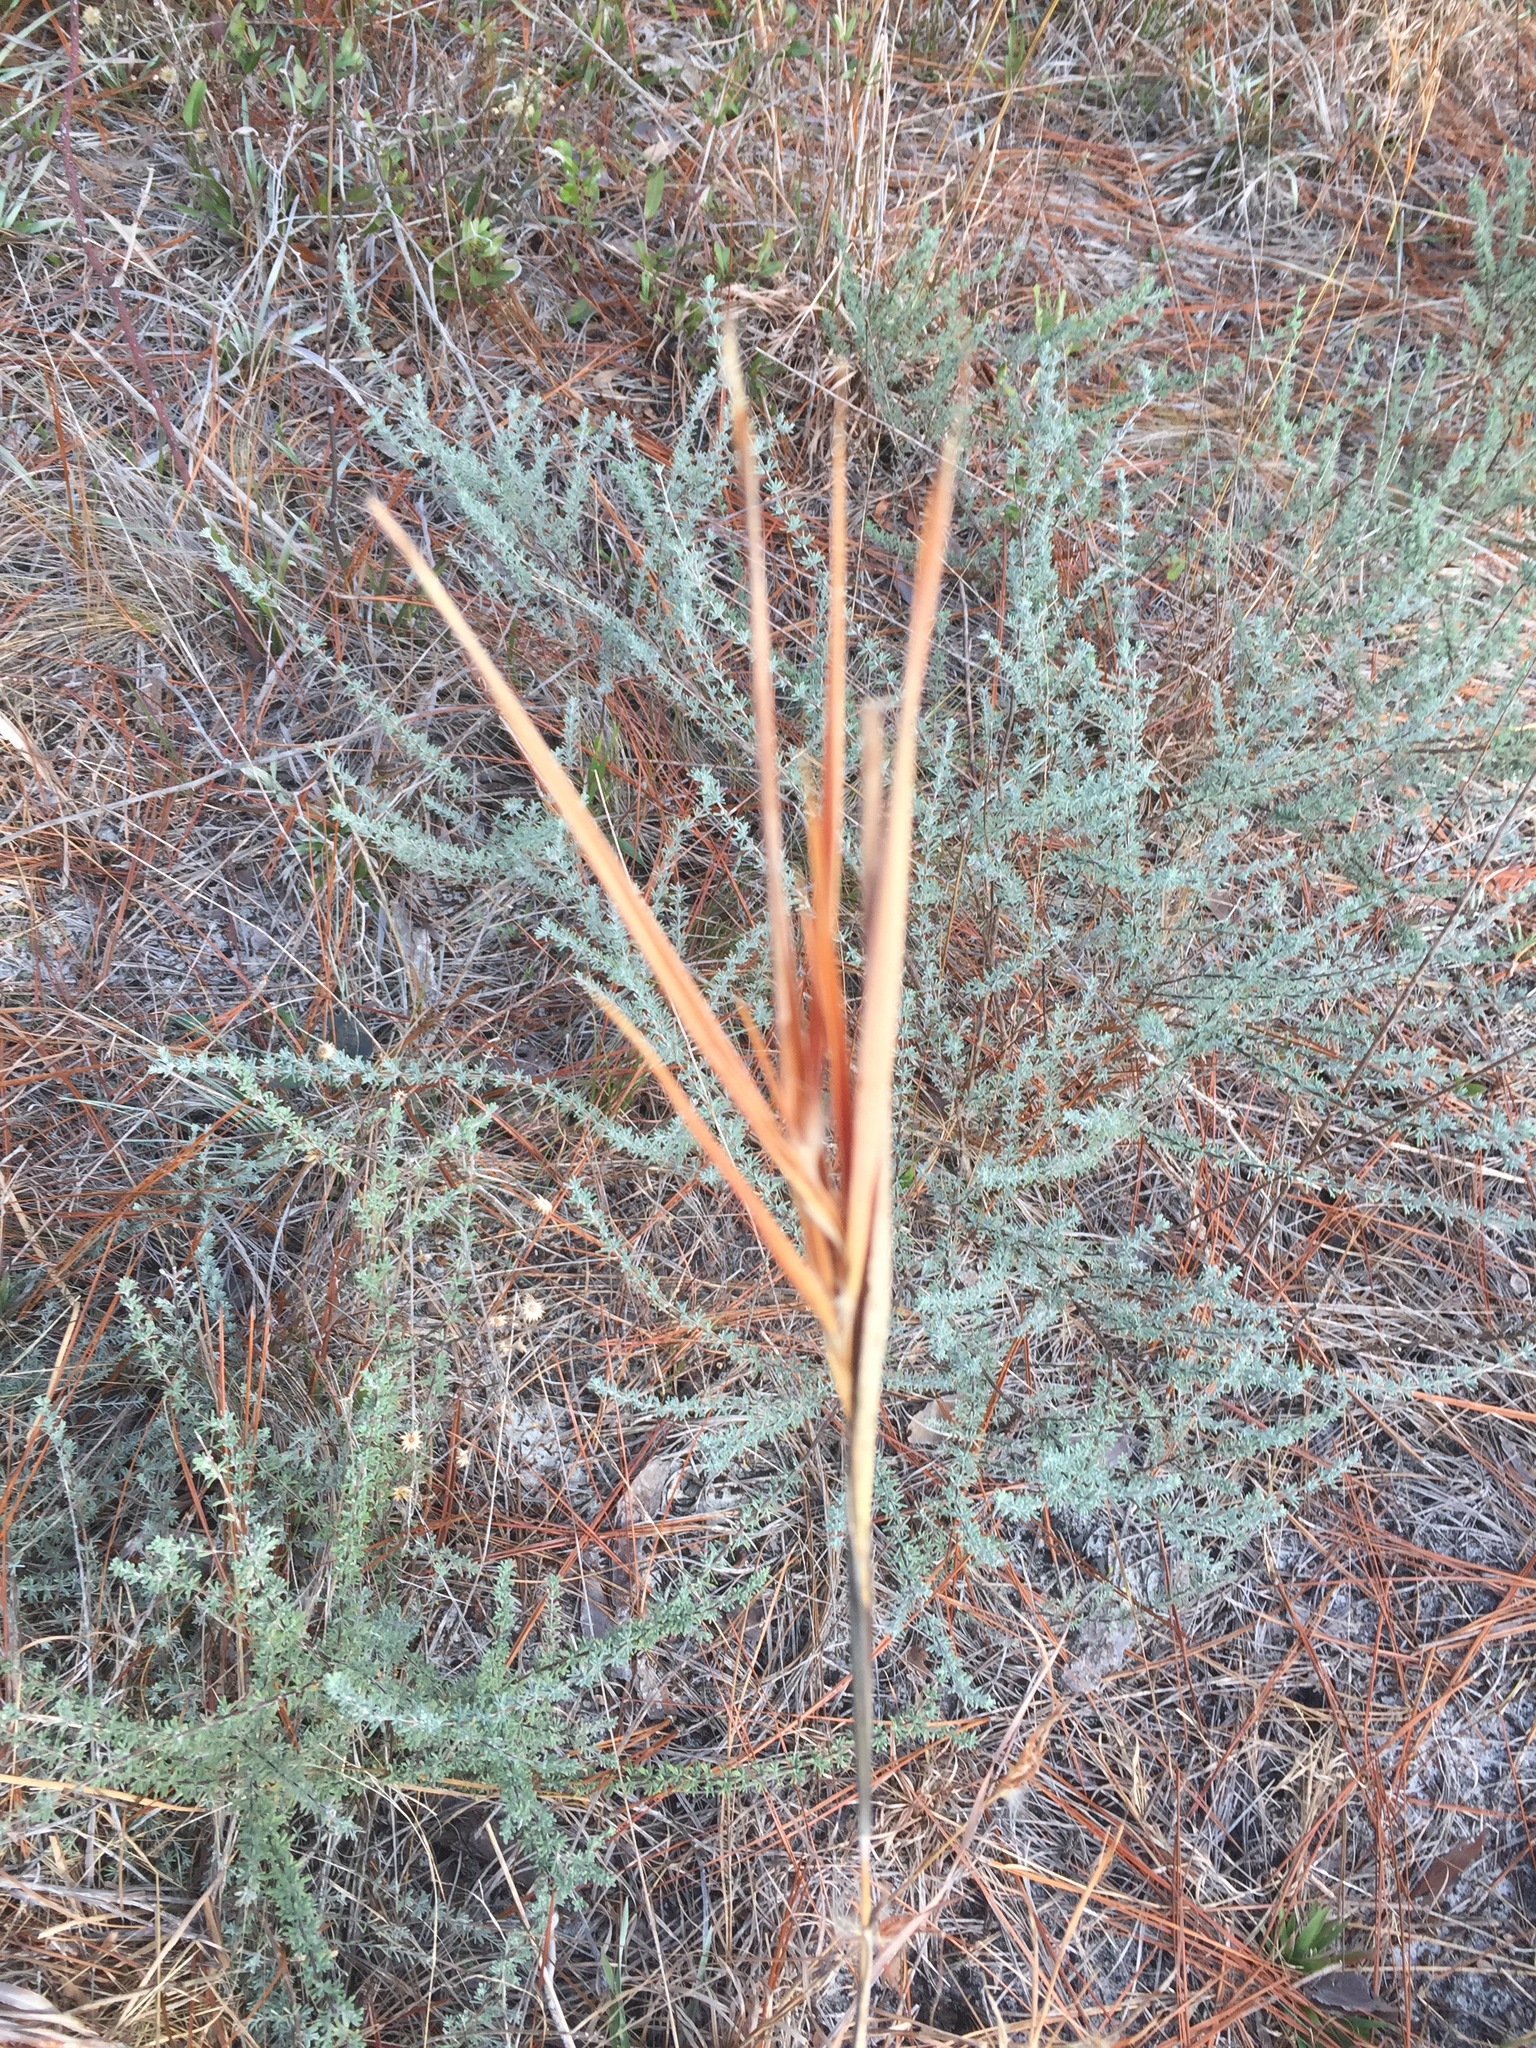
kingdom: Plantae
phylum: Tracheophyta
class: Liliopsida
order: Poales
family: Poaceae
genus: Andropogon
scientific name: Andropogon gyrans
